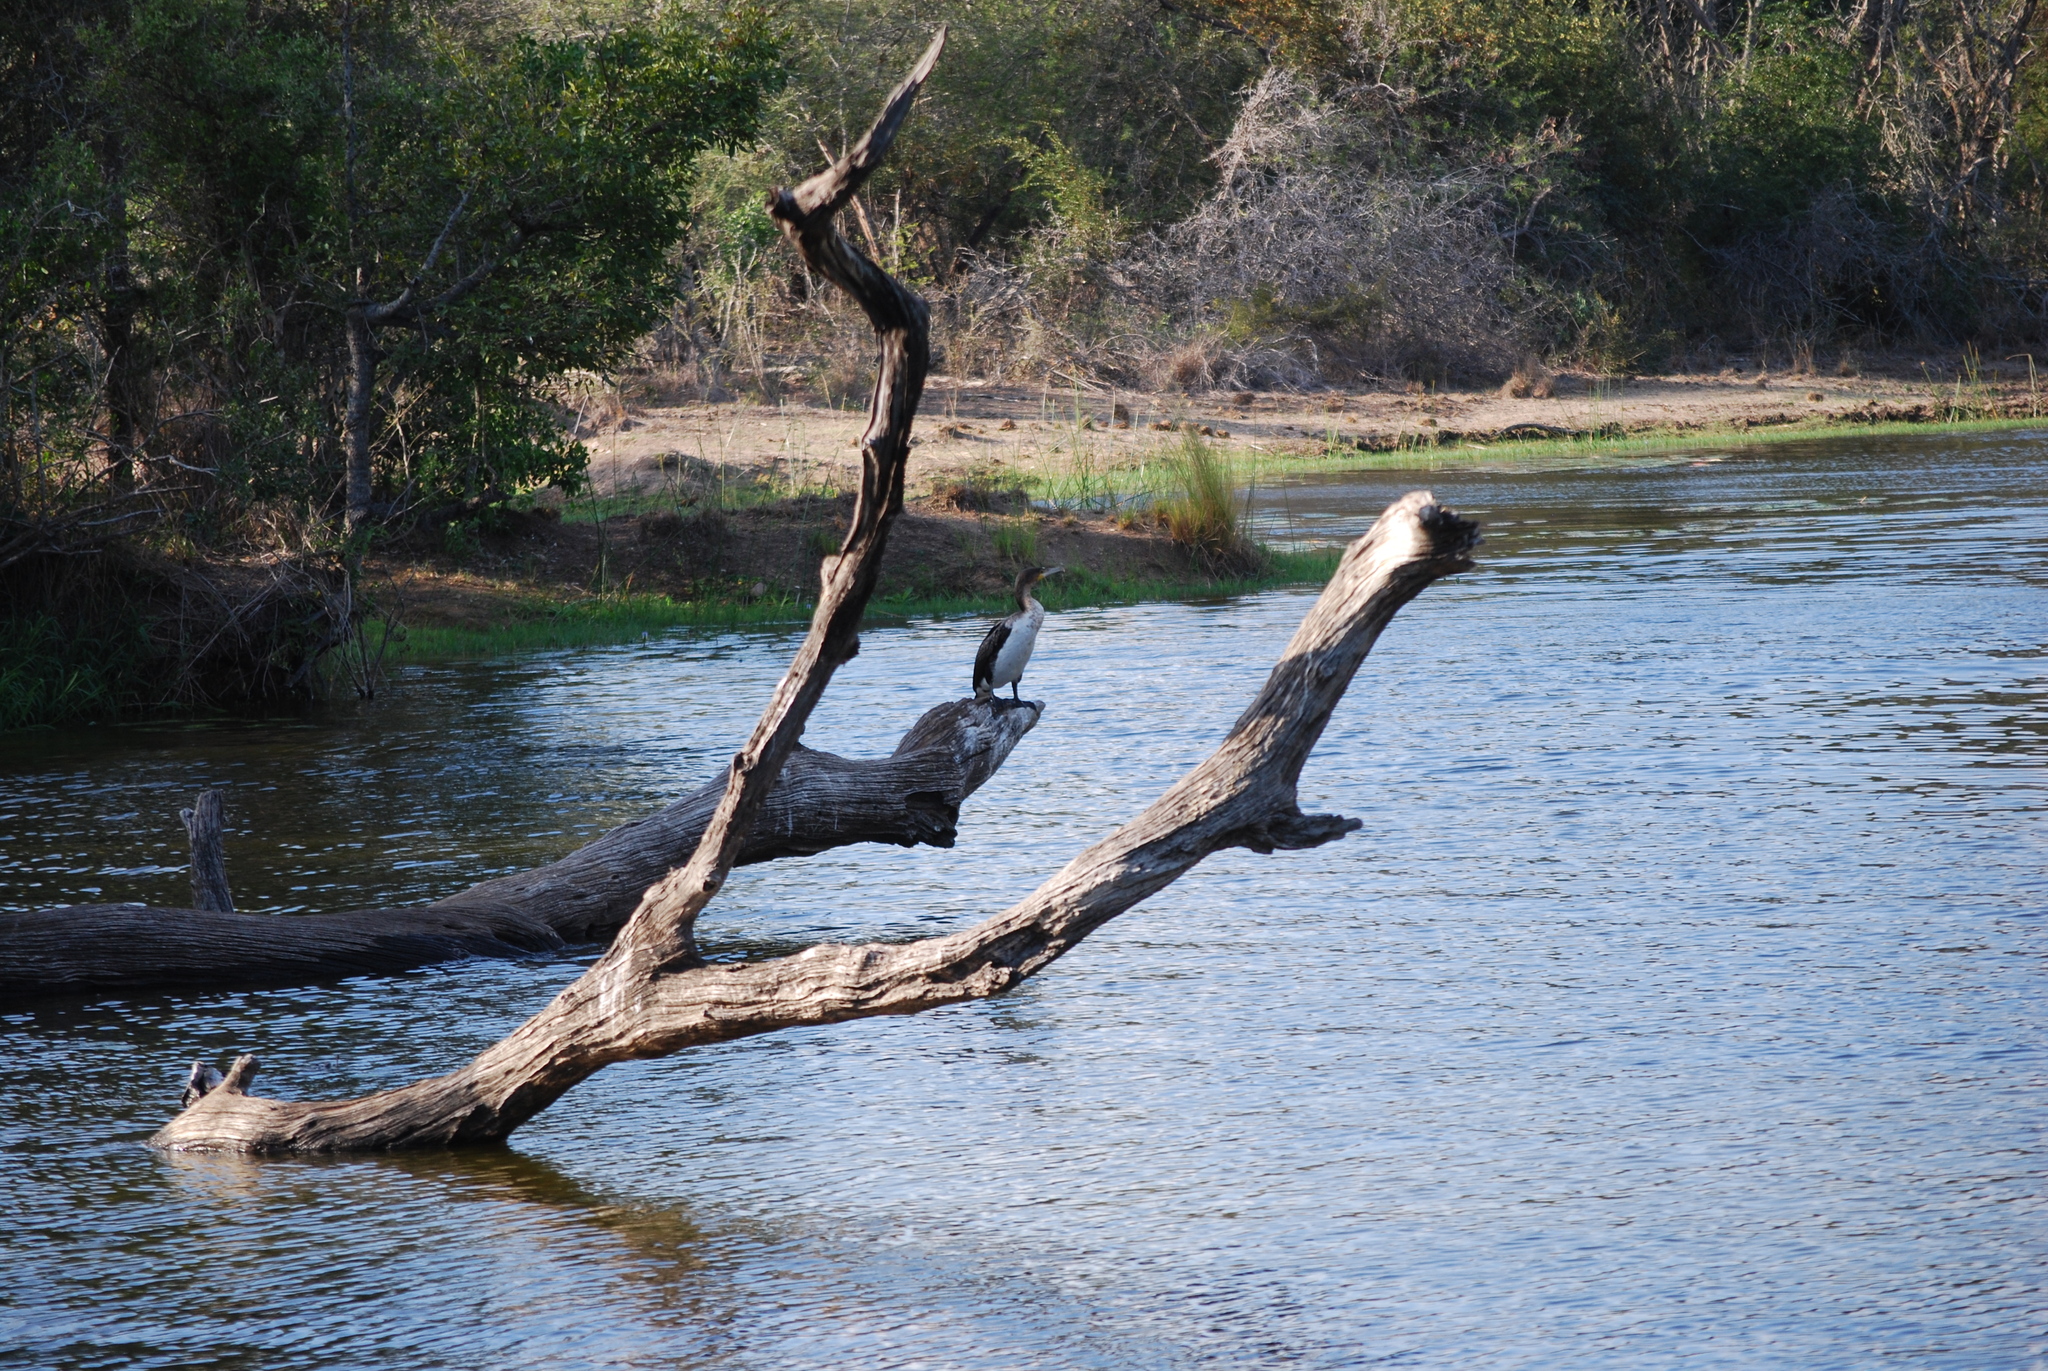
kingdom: Animalia
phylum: Chordata
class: Aves
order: Suliformes
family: Phalacrocoracidae
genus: Phalacrocorax
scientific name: Phalacrocorax carbo
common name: Great cormorant
